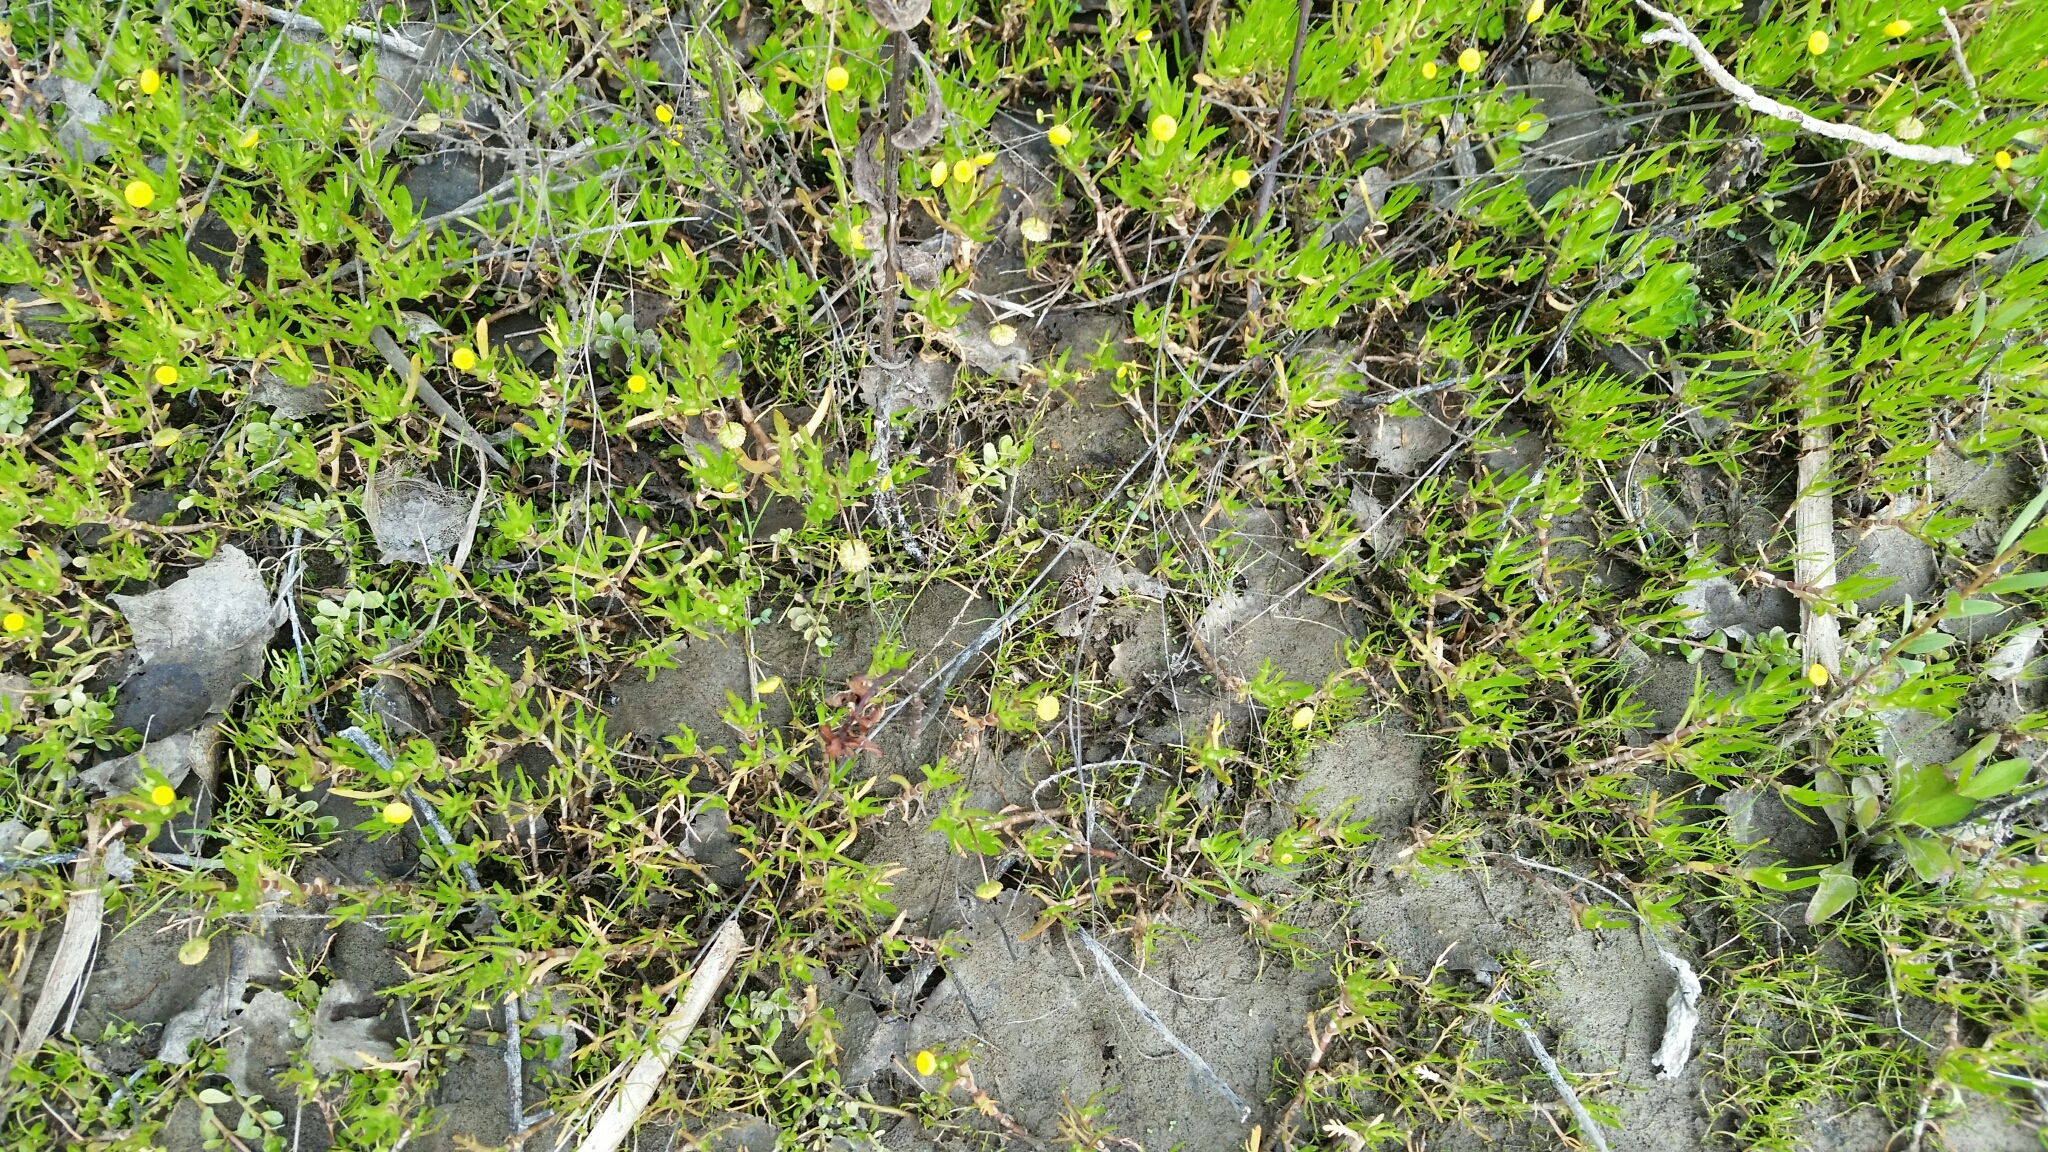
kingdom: Plantae
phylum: Tracheophyta
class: Magnoliopsida
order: Asterales
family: Asteraceae
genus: Cotula
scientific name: Cotula coronopifolia
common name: Buttonweed
